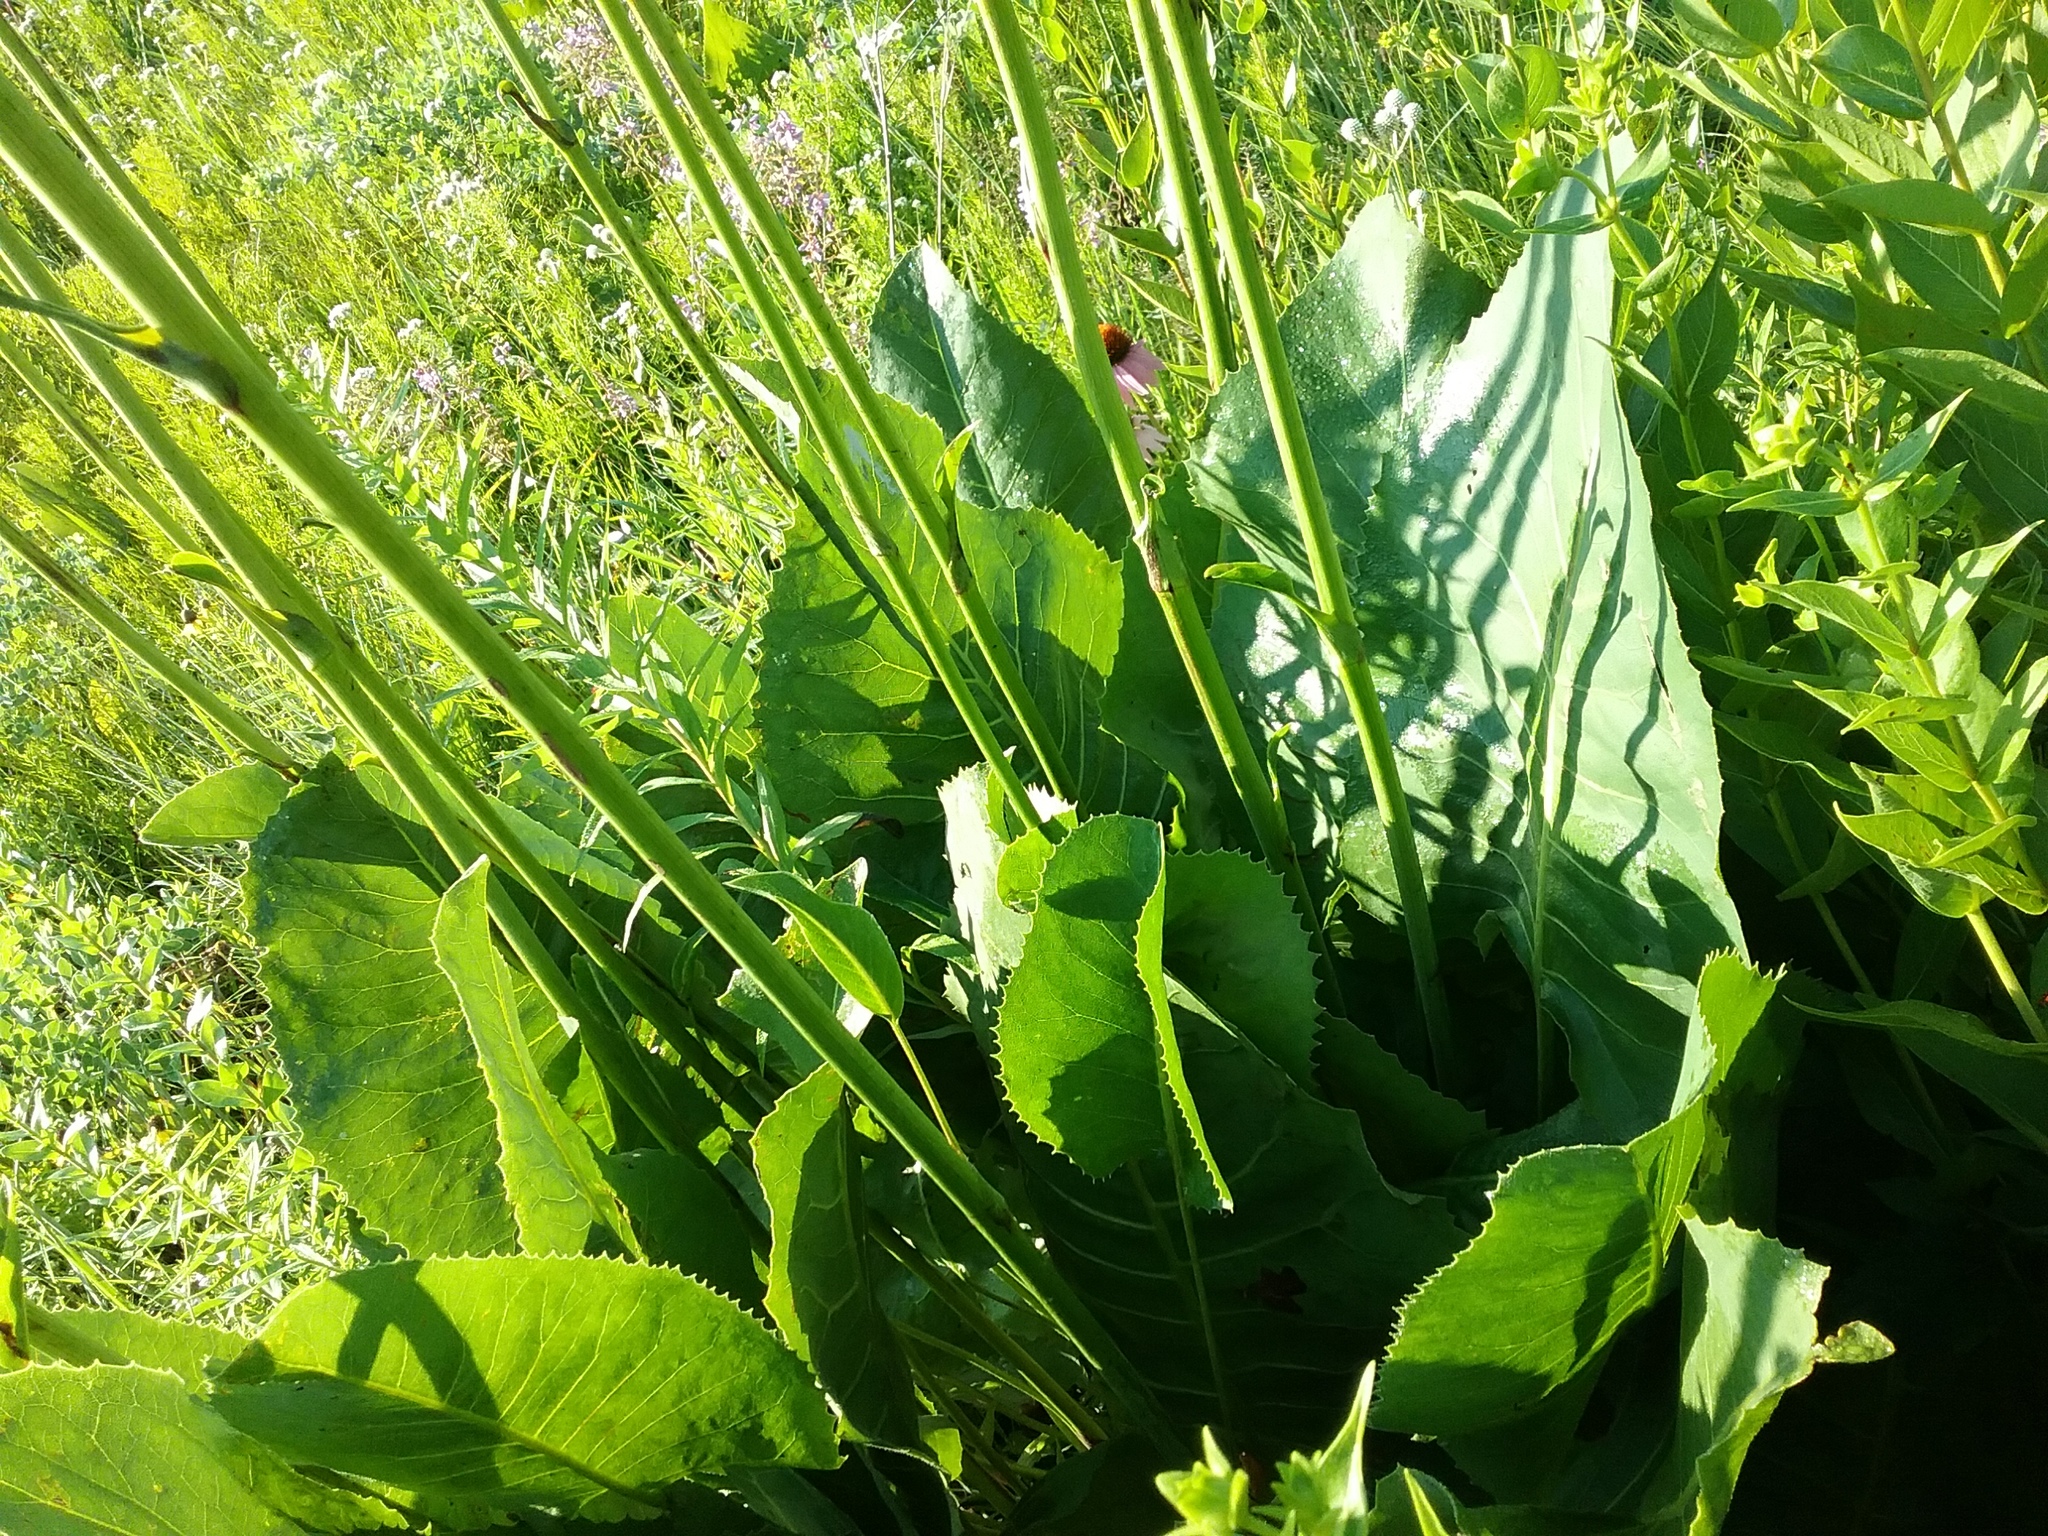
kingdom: Plantae
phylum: Tracheophyta
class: Magnoliopsida
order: Asterales
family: Asteraceae
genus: Silphium
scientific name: Silphium terebinthinaceum
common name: Basal-leaf rosinweed
